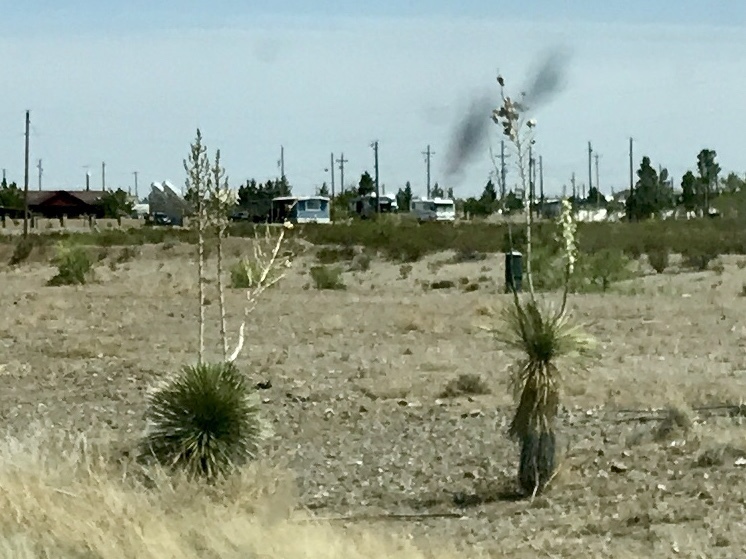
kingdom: Plantae
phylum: Tracheophyta
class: Liliopsida
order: Asparagales
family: Asparagaceae
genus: Yucca
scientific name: Yucca elata
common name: Palmella
